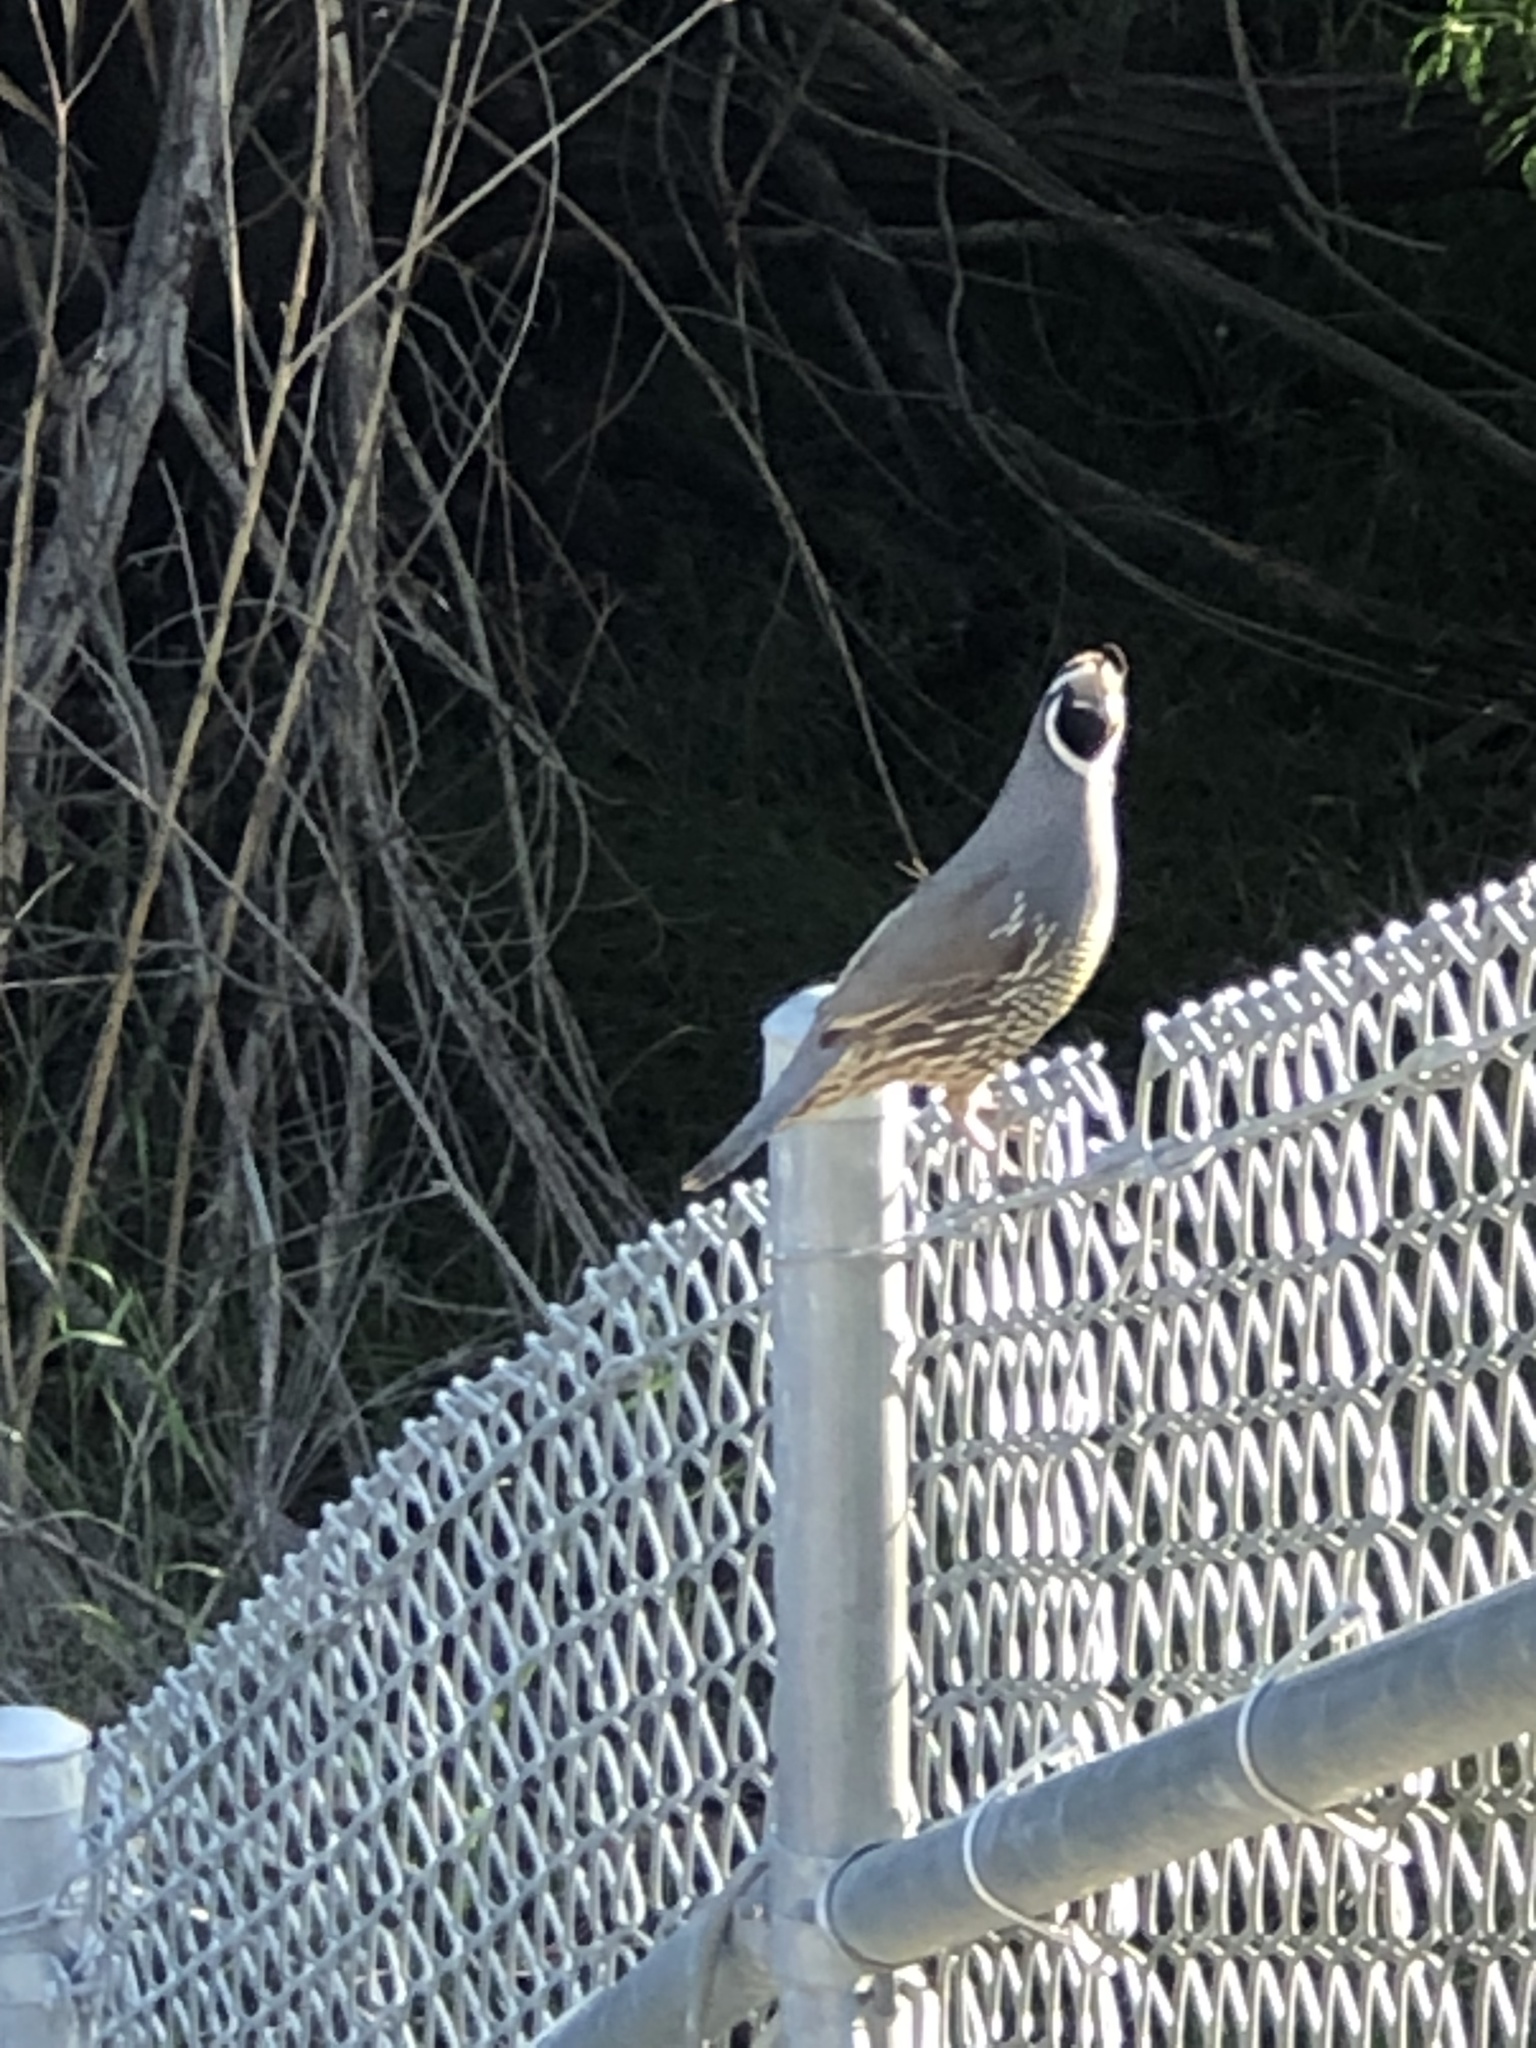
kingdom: Animalia
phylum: Chordata
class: Aves
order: Galliformes
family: Odontophoridae
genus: Callipepla
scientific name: Callipepla californica
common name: California quail
